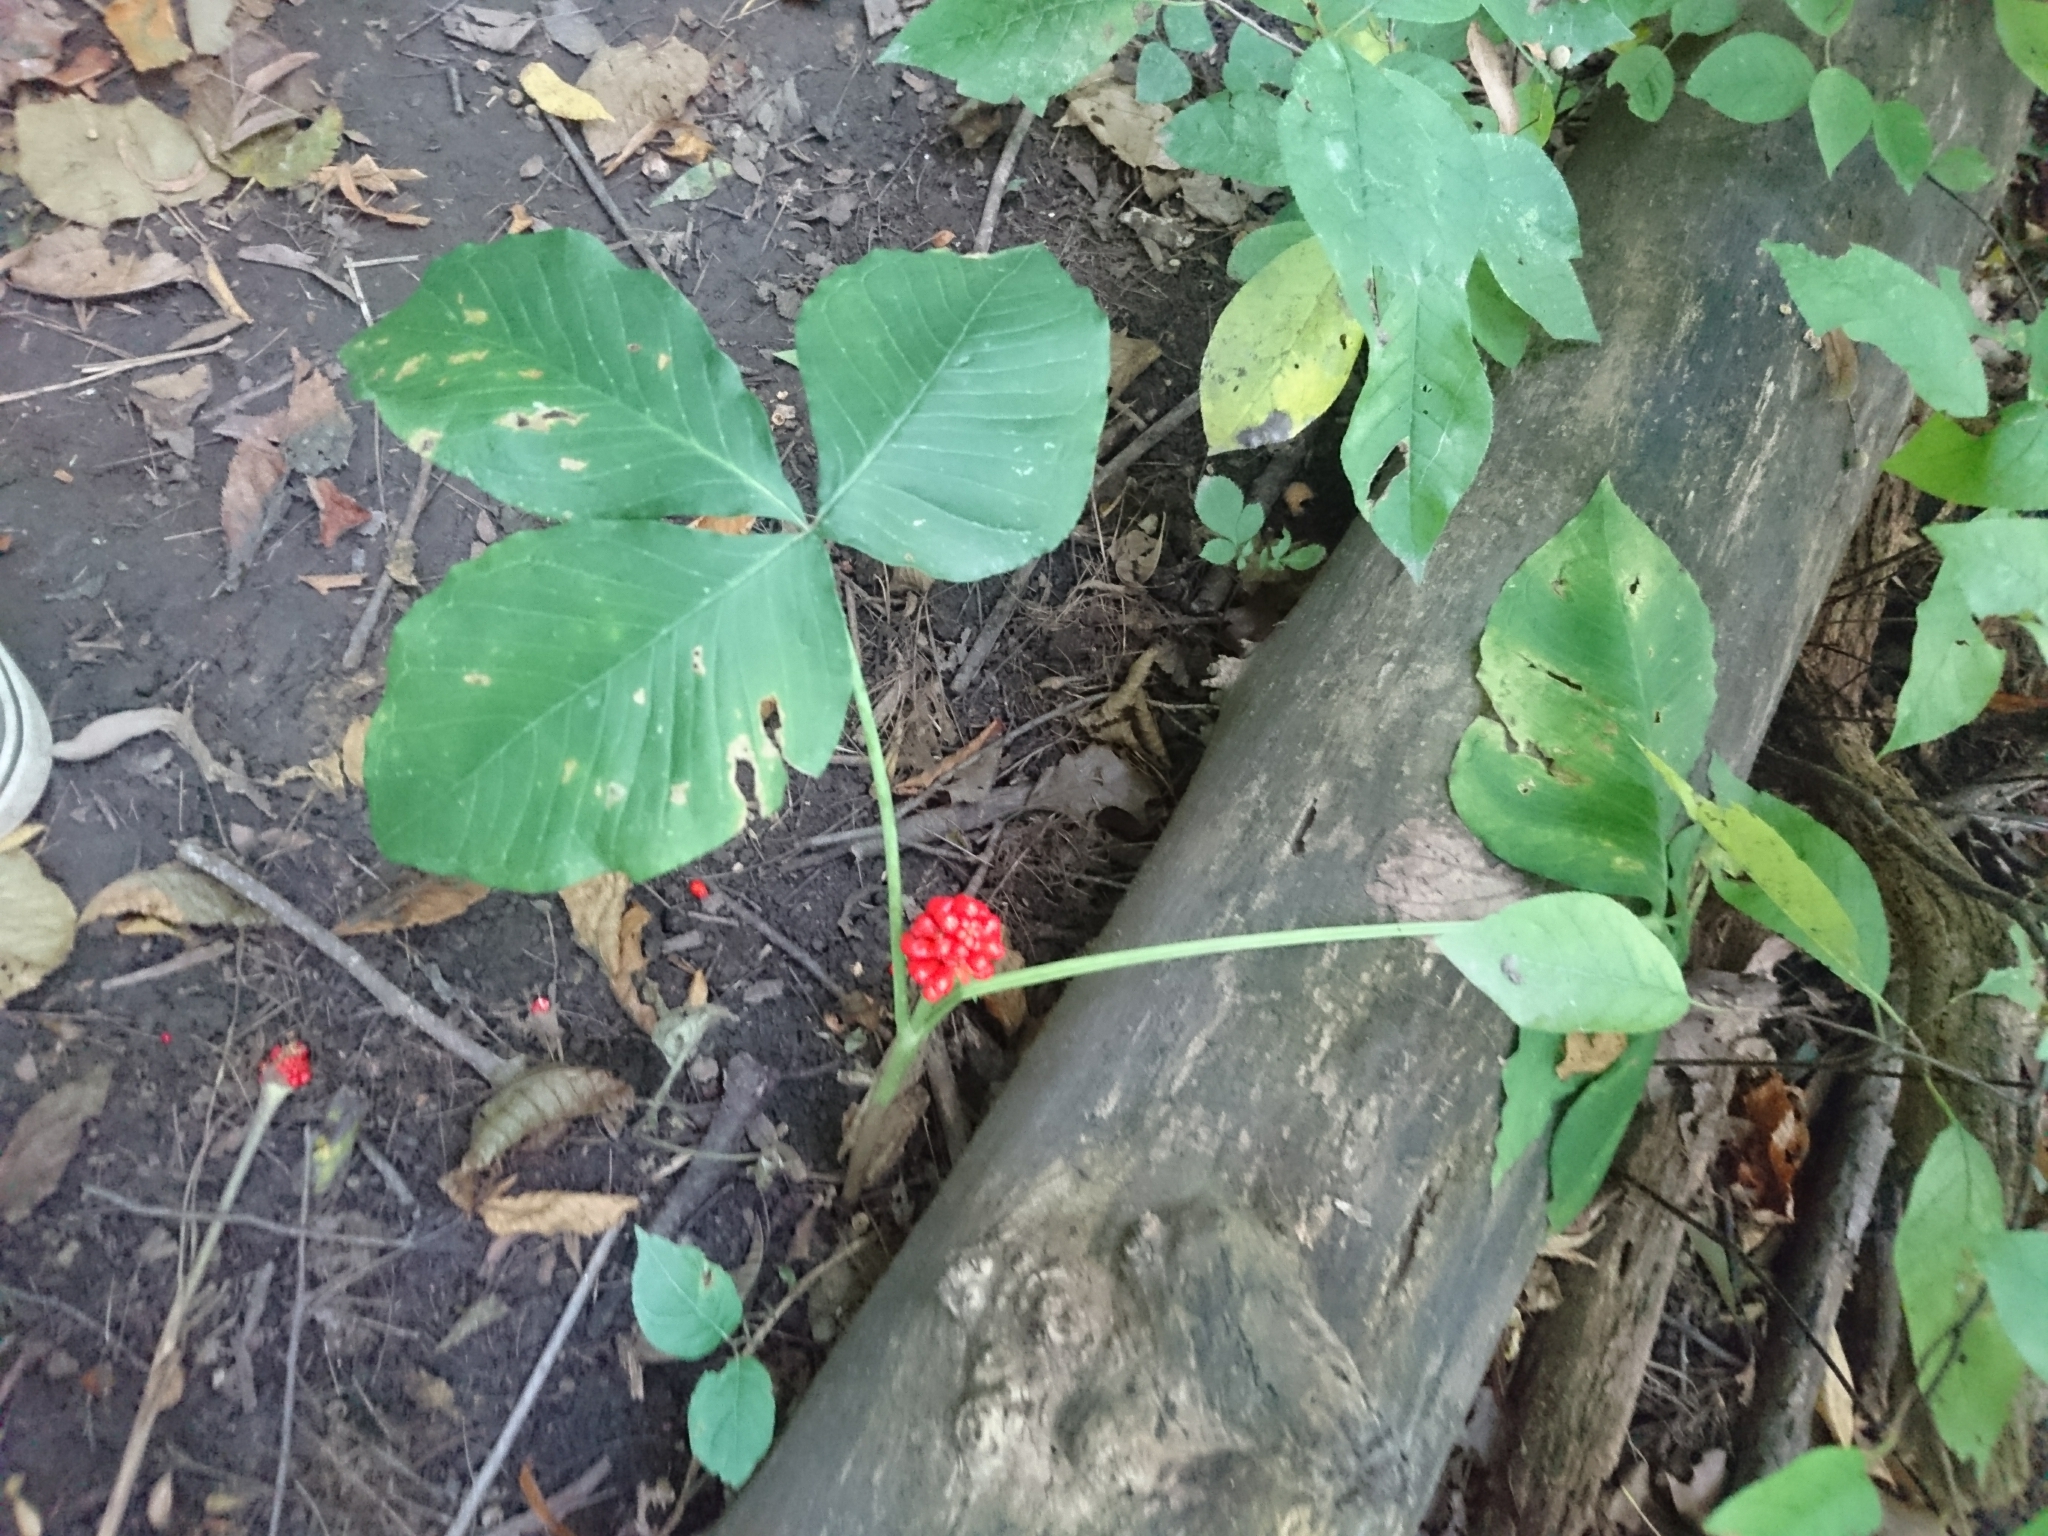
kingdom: Plantae
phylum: Tracheophyta
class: Liliopsida
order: Alismatales
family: Araceae
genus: Arisaema
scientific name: Arisaema triphyllum
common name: Jack-in-the-pulpit
